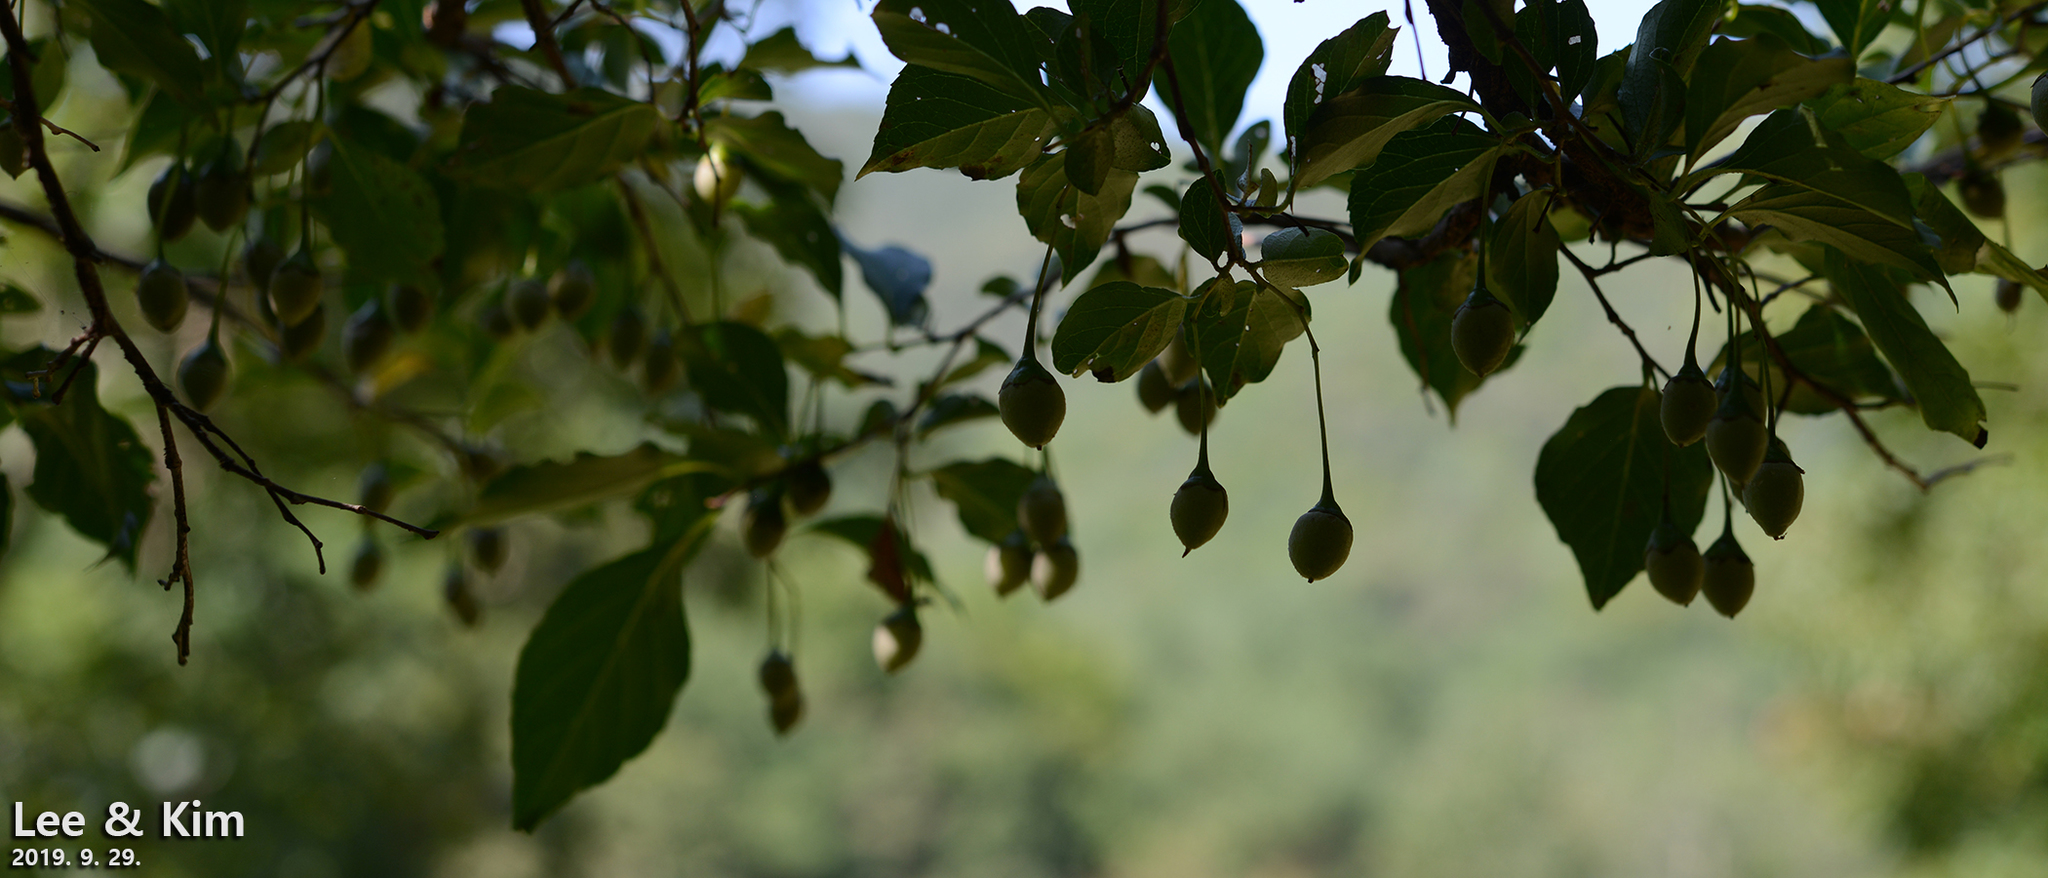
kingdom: Plantae
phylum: Tracheophyta
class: Magnoliopsida
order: Ericales
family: Styracaceae
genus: Styrax
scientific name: Styrax japonicus
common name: Japanese snowbell
